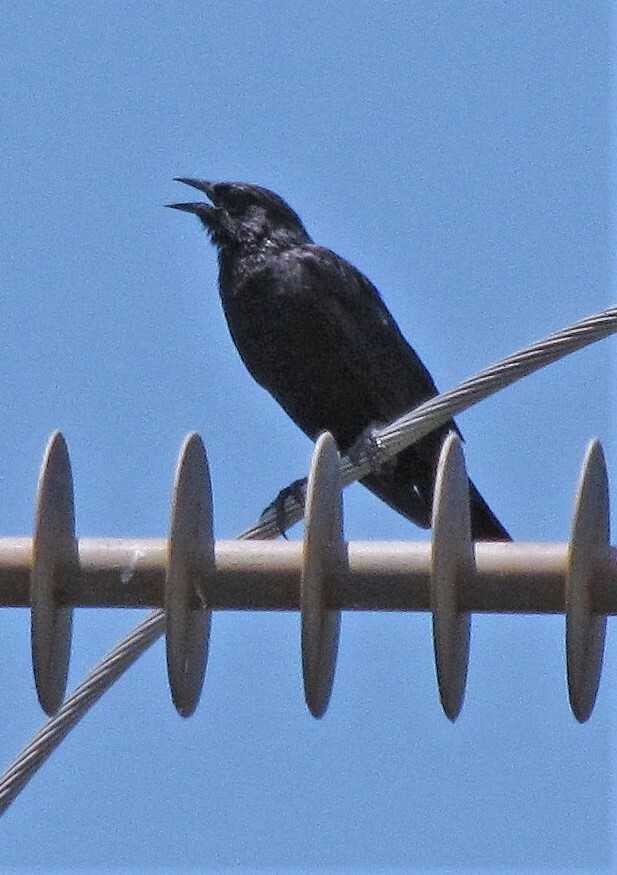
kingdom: Animalia
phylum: Chordata
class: Aves
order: Passeriformes
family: Icteridae
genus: Gnorimopsar
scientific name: Gnorimopsar chopi
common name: Chopi blackbird
